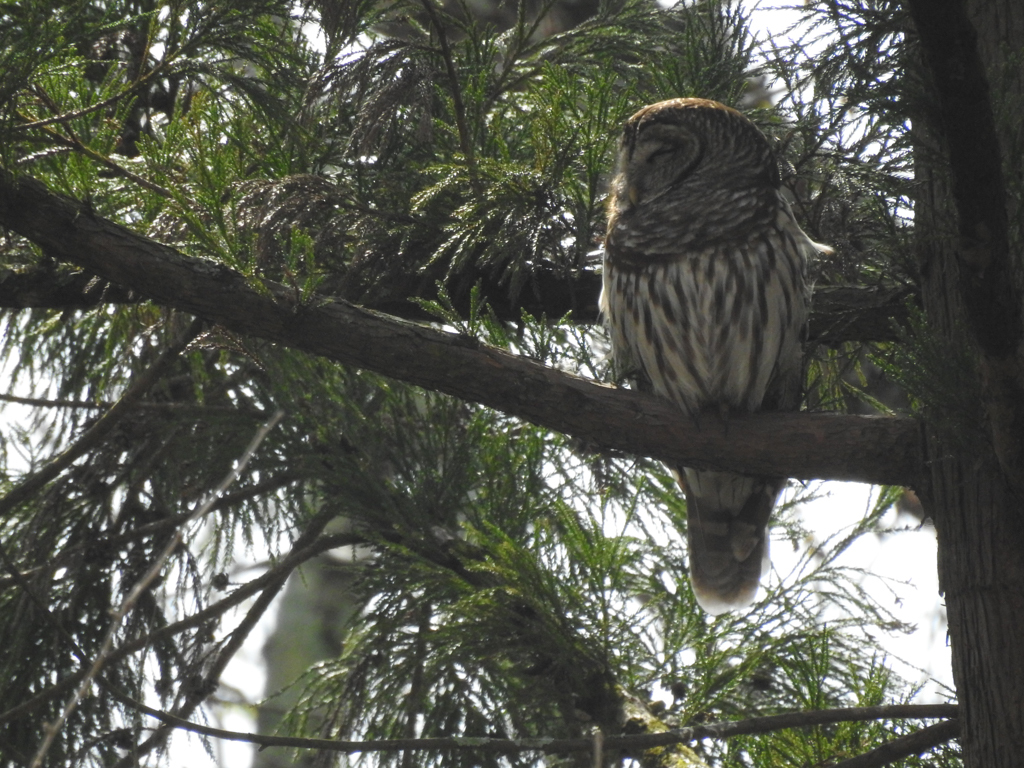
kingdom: Animalia
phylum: Chordata
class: Aves
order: Strigiformes
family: Strigidae
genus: Strix
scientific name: Strix varia
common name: Barred owl
